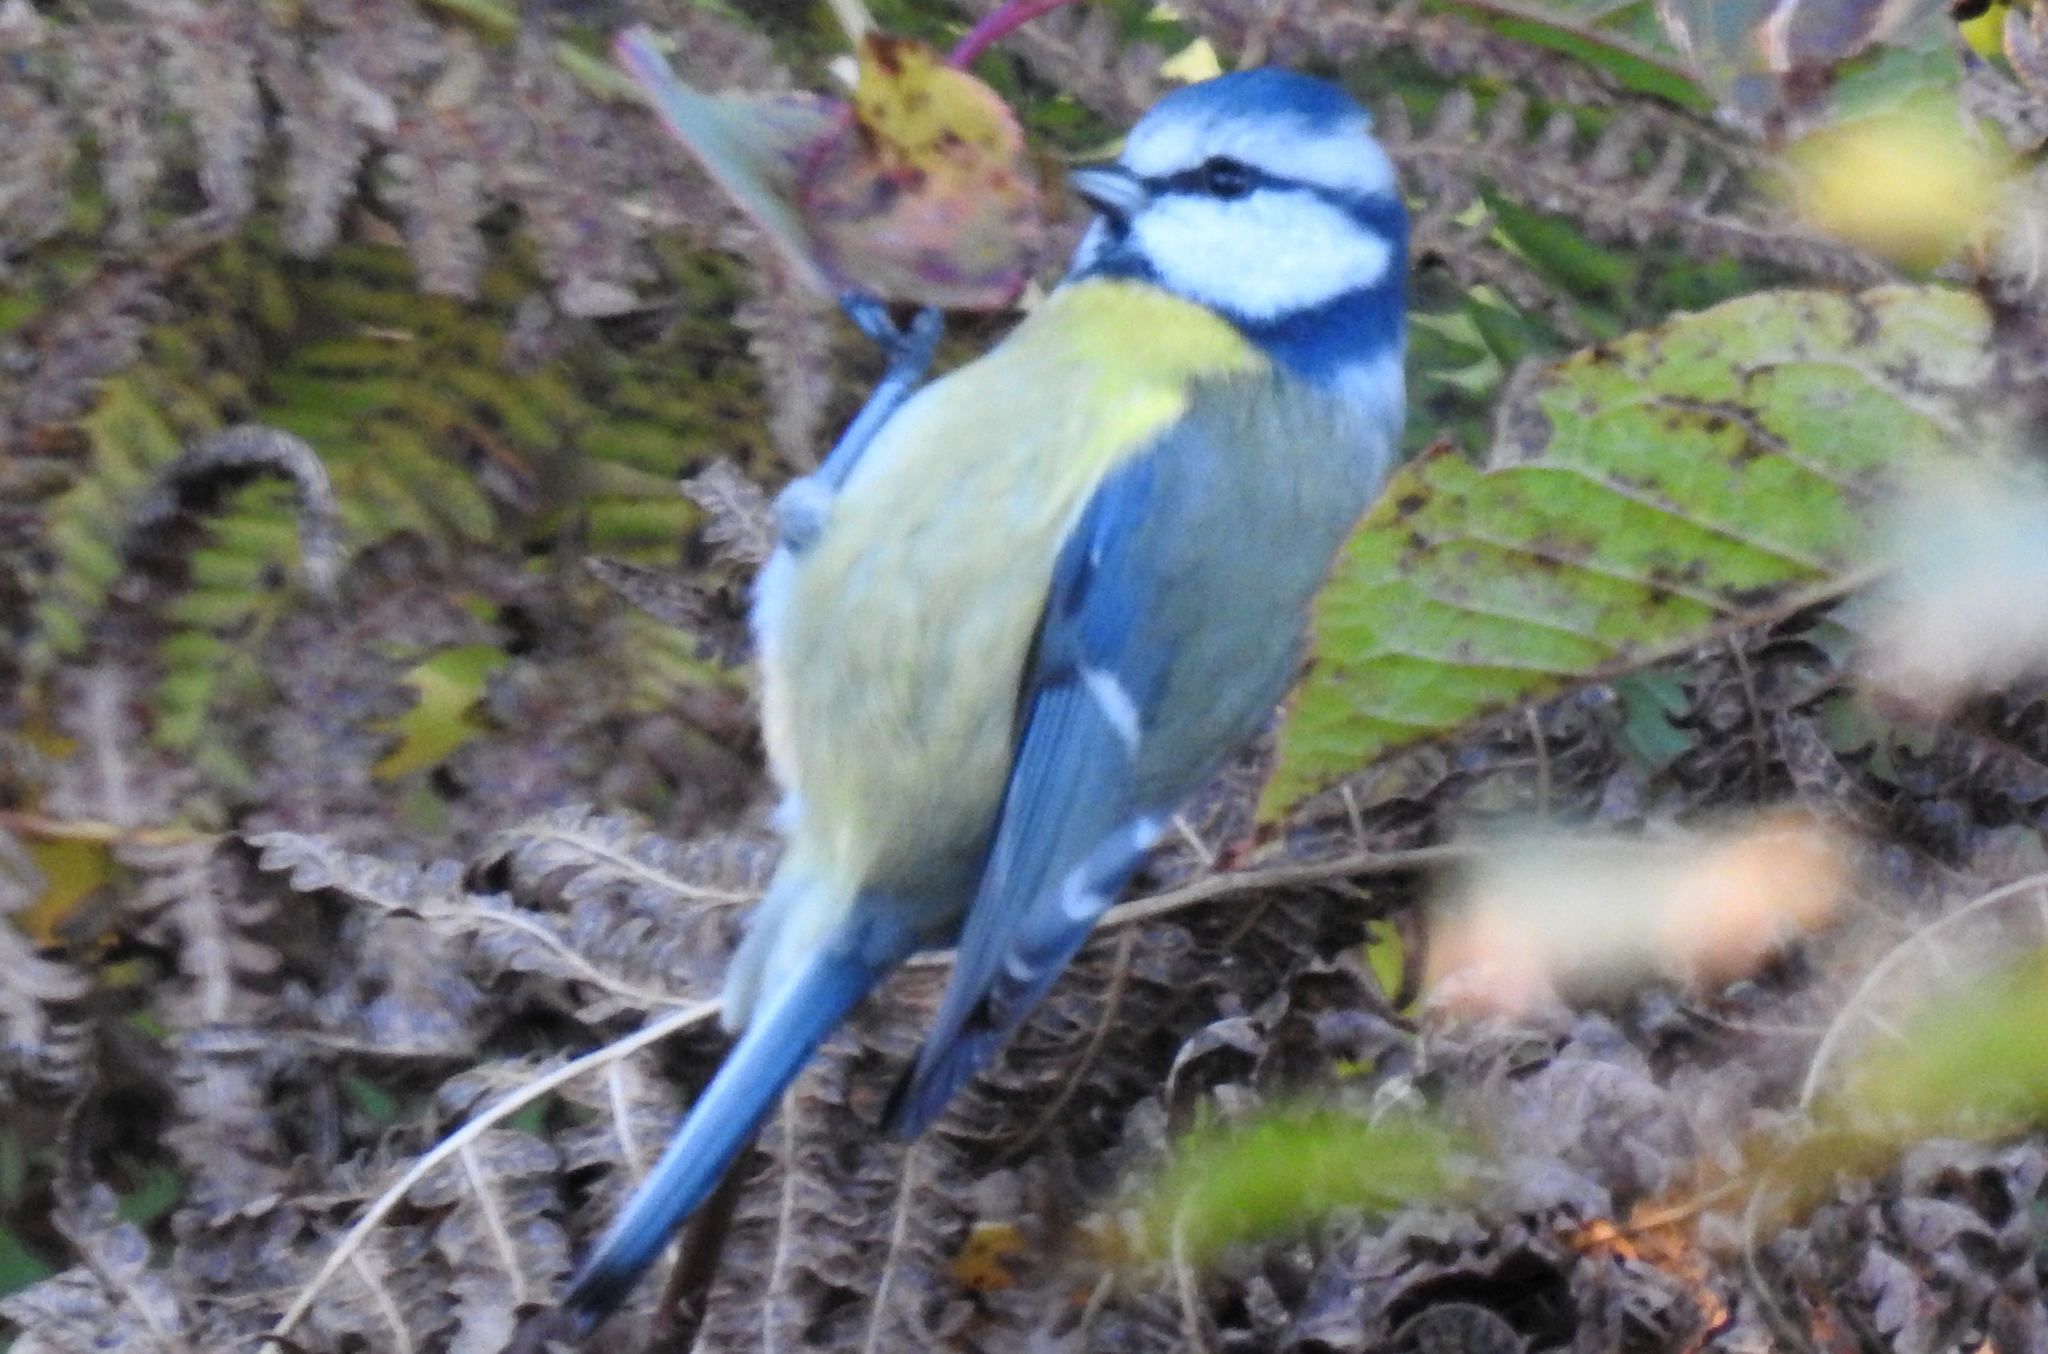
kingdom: Animalia
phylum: Chordata
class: Aves
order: Passeriformes
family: Paridae
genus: Cyanistes
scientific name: Cyanistes caeruleus
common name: Eurasian blue tit
